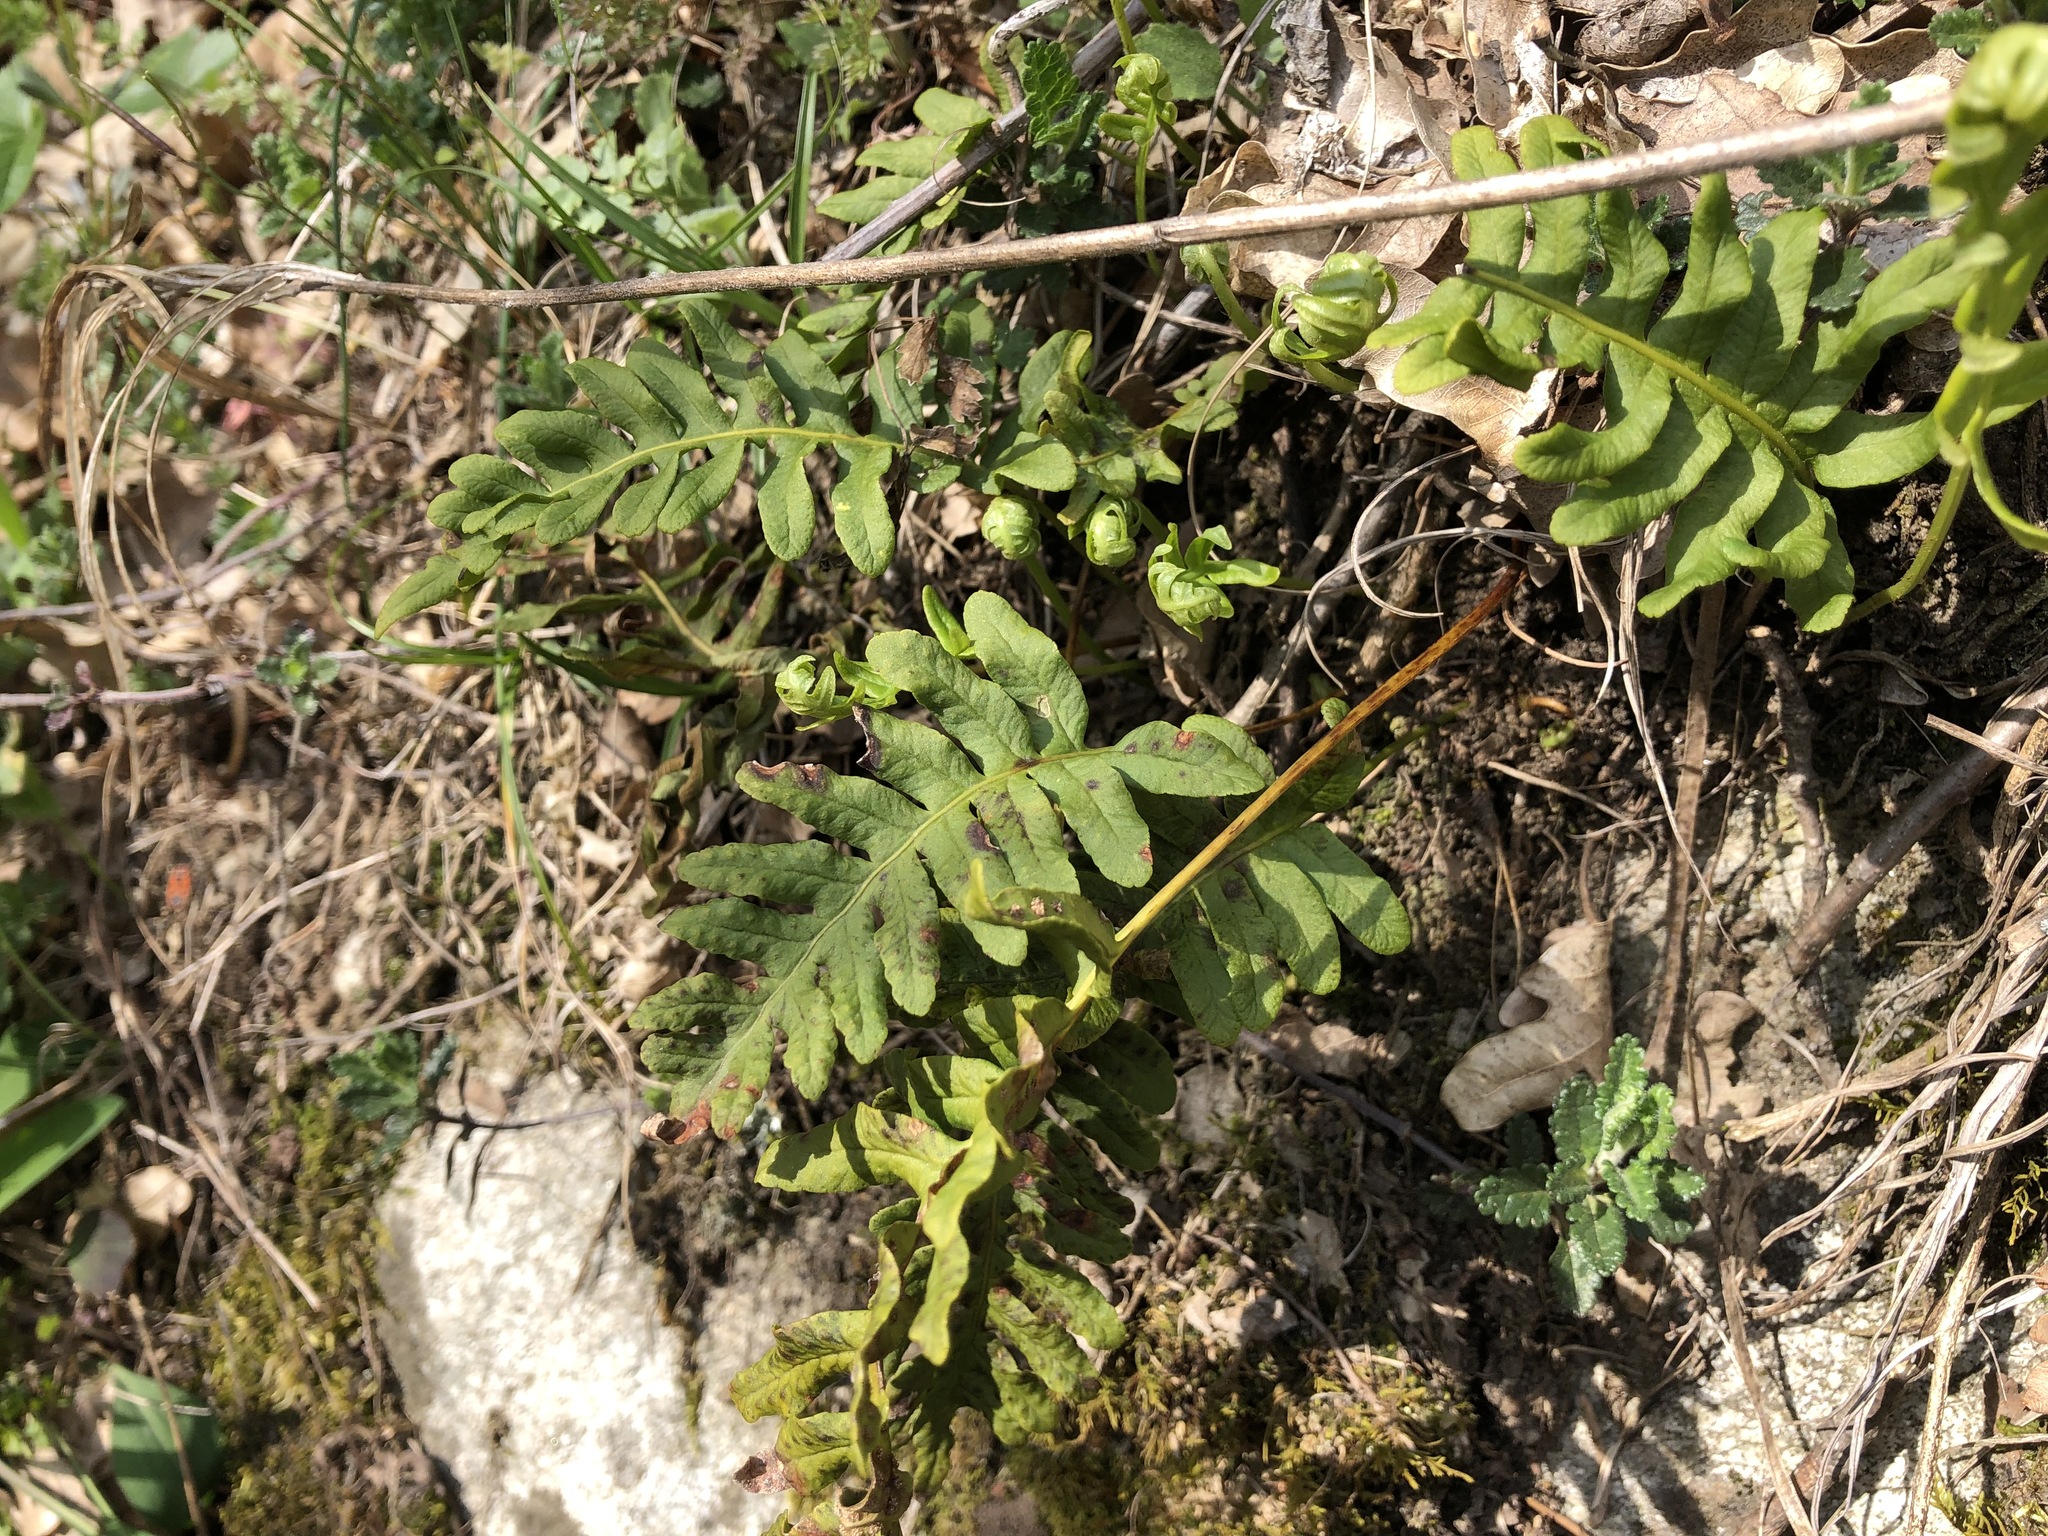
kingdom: Plantae
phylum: Tracheophyta
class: Polypodiopsida
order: Polypodiales
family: Polypodiaceae
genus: Polypodium
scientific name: Polypodium vulgare
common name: Common polypody
